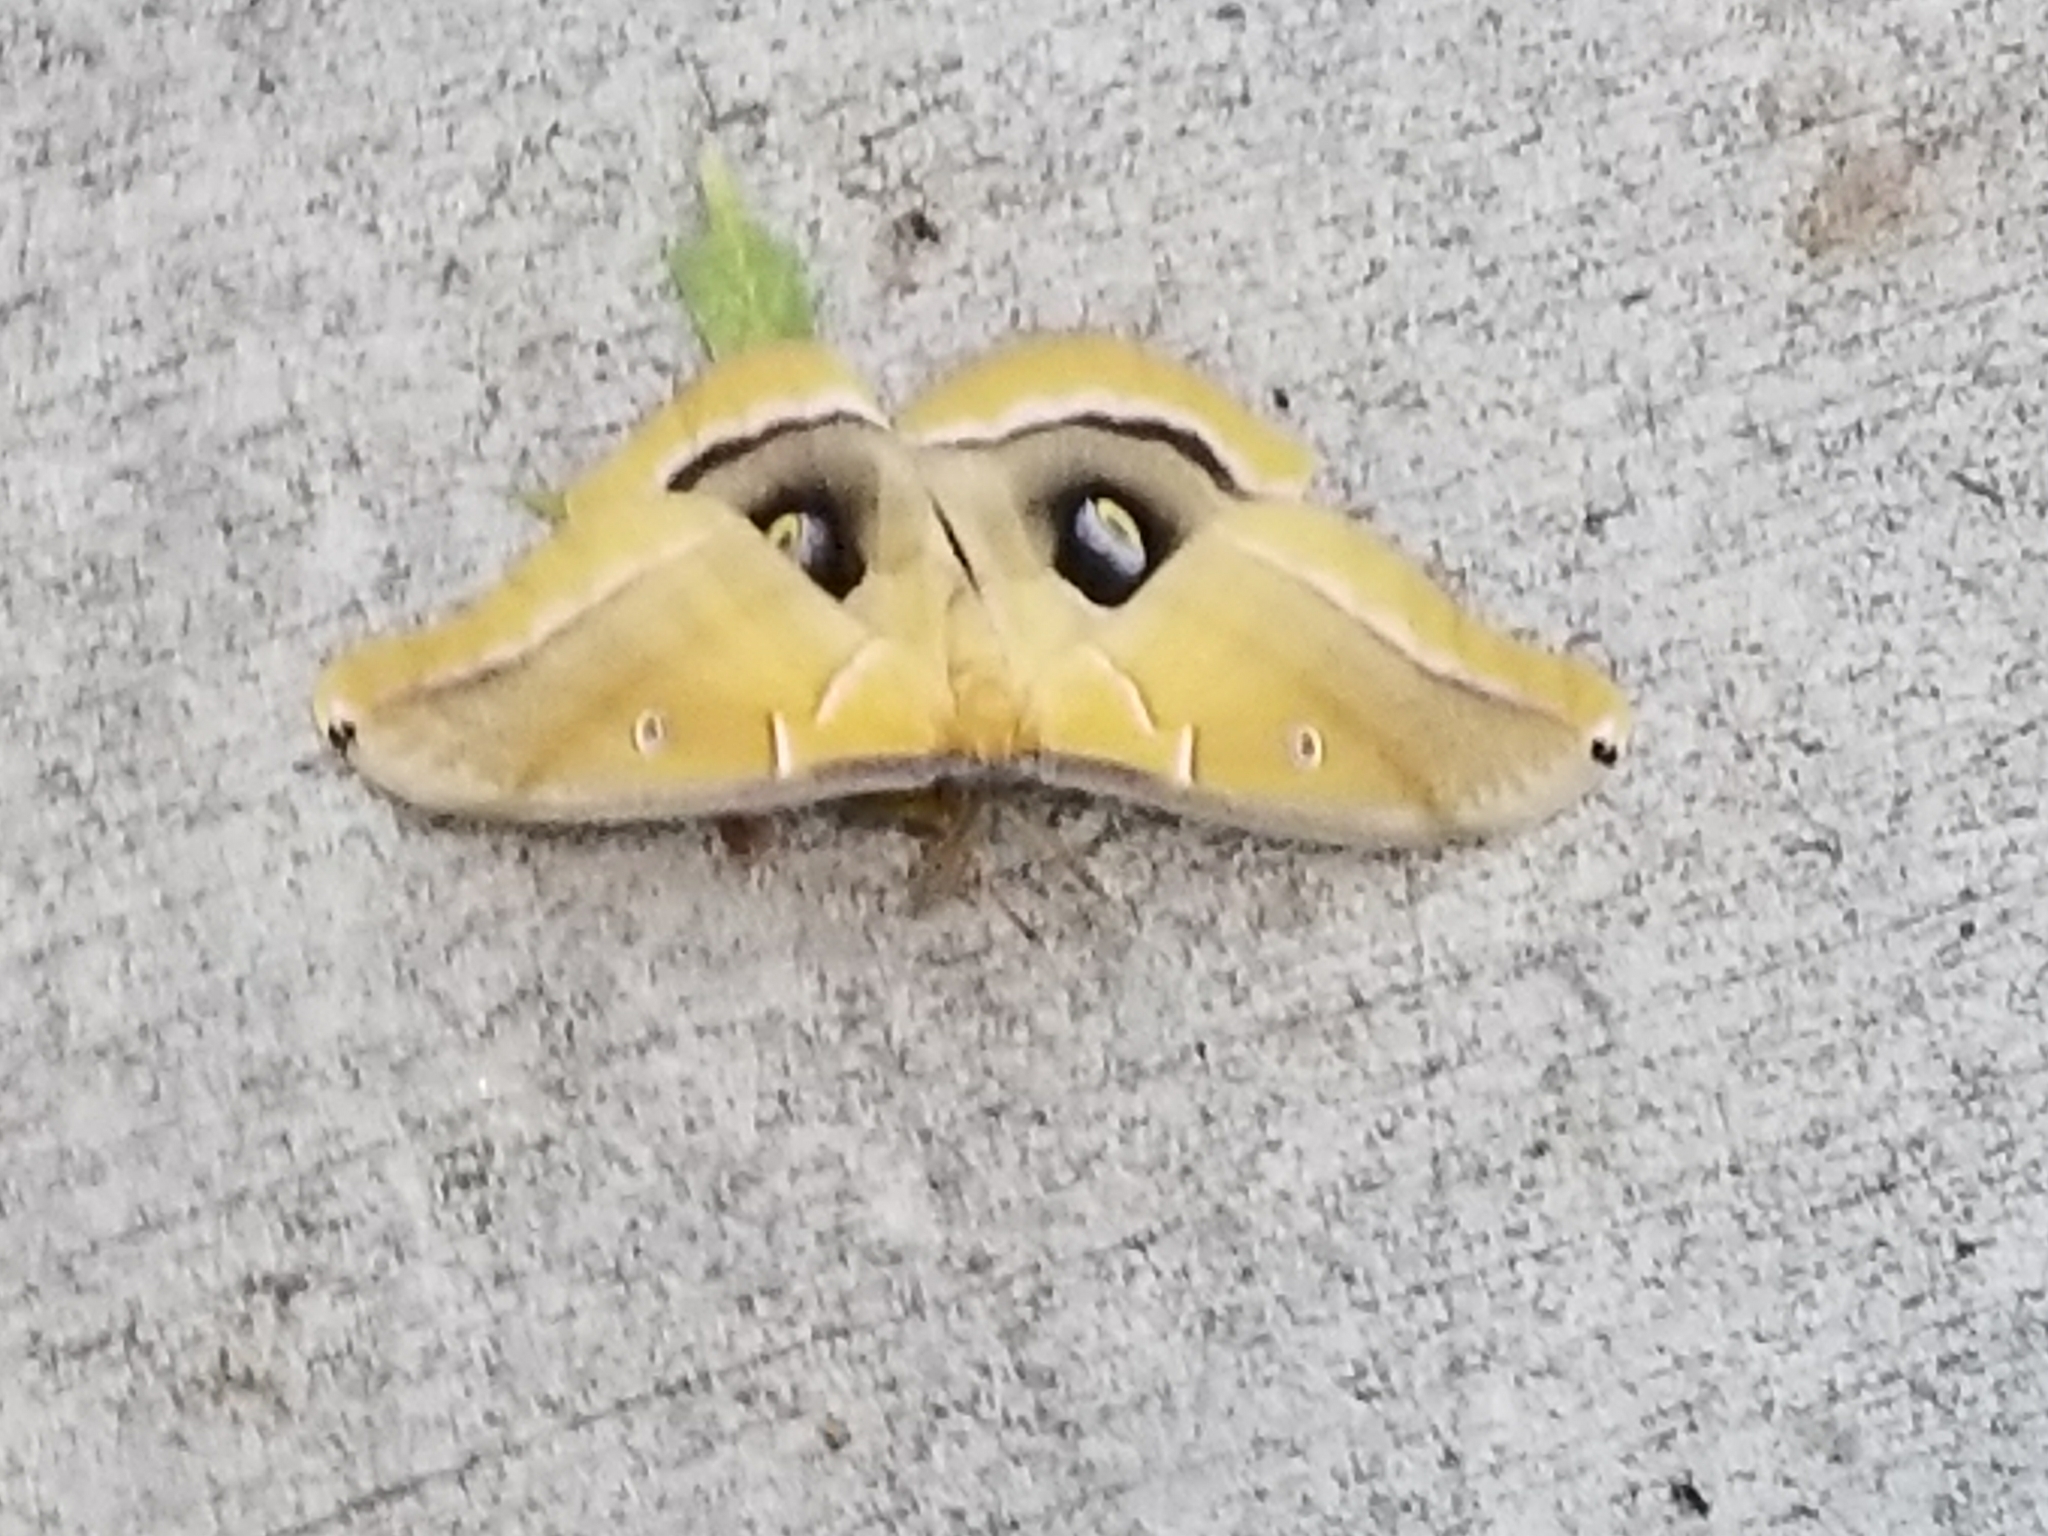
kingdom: Animalia
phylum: Arthropoda
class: Insecta
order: Lepidoptera
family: Saturniidae
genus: Antheraea
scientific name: Antheraea polyphemus
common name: Polyphemus moth
